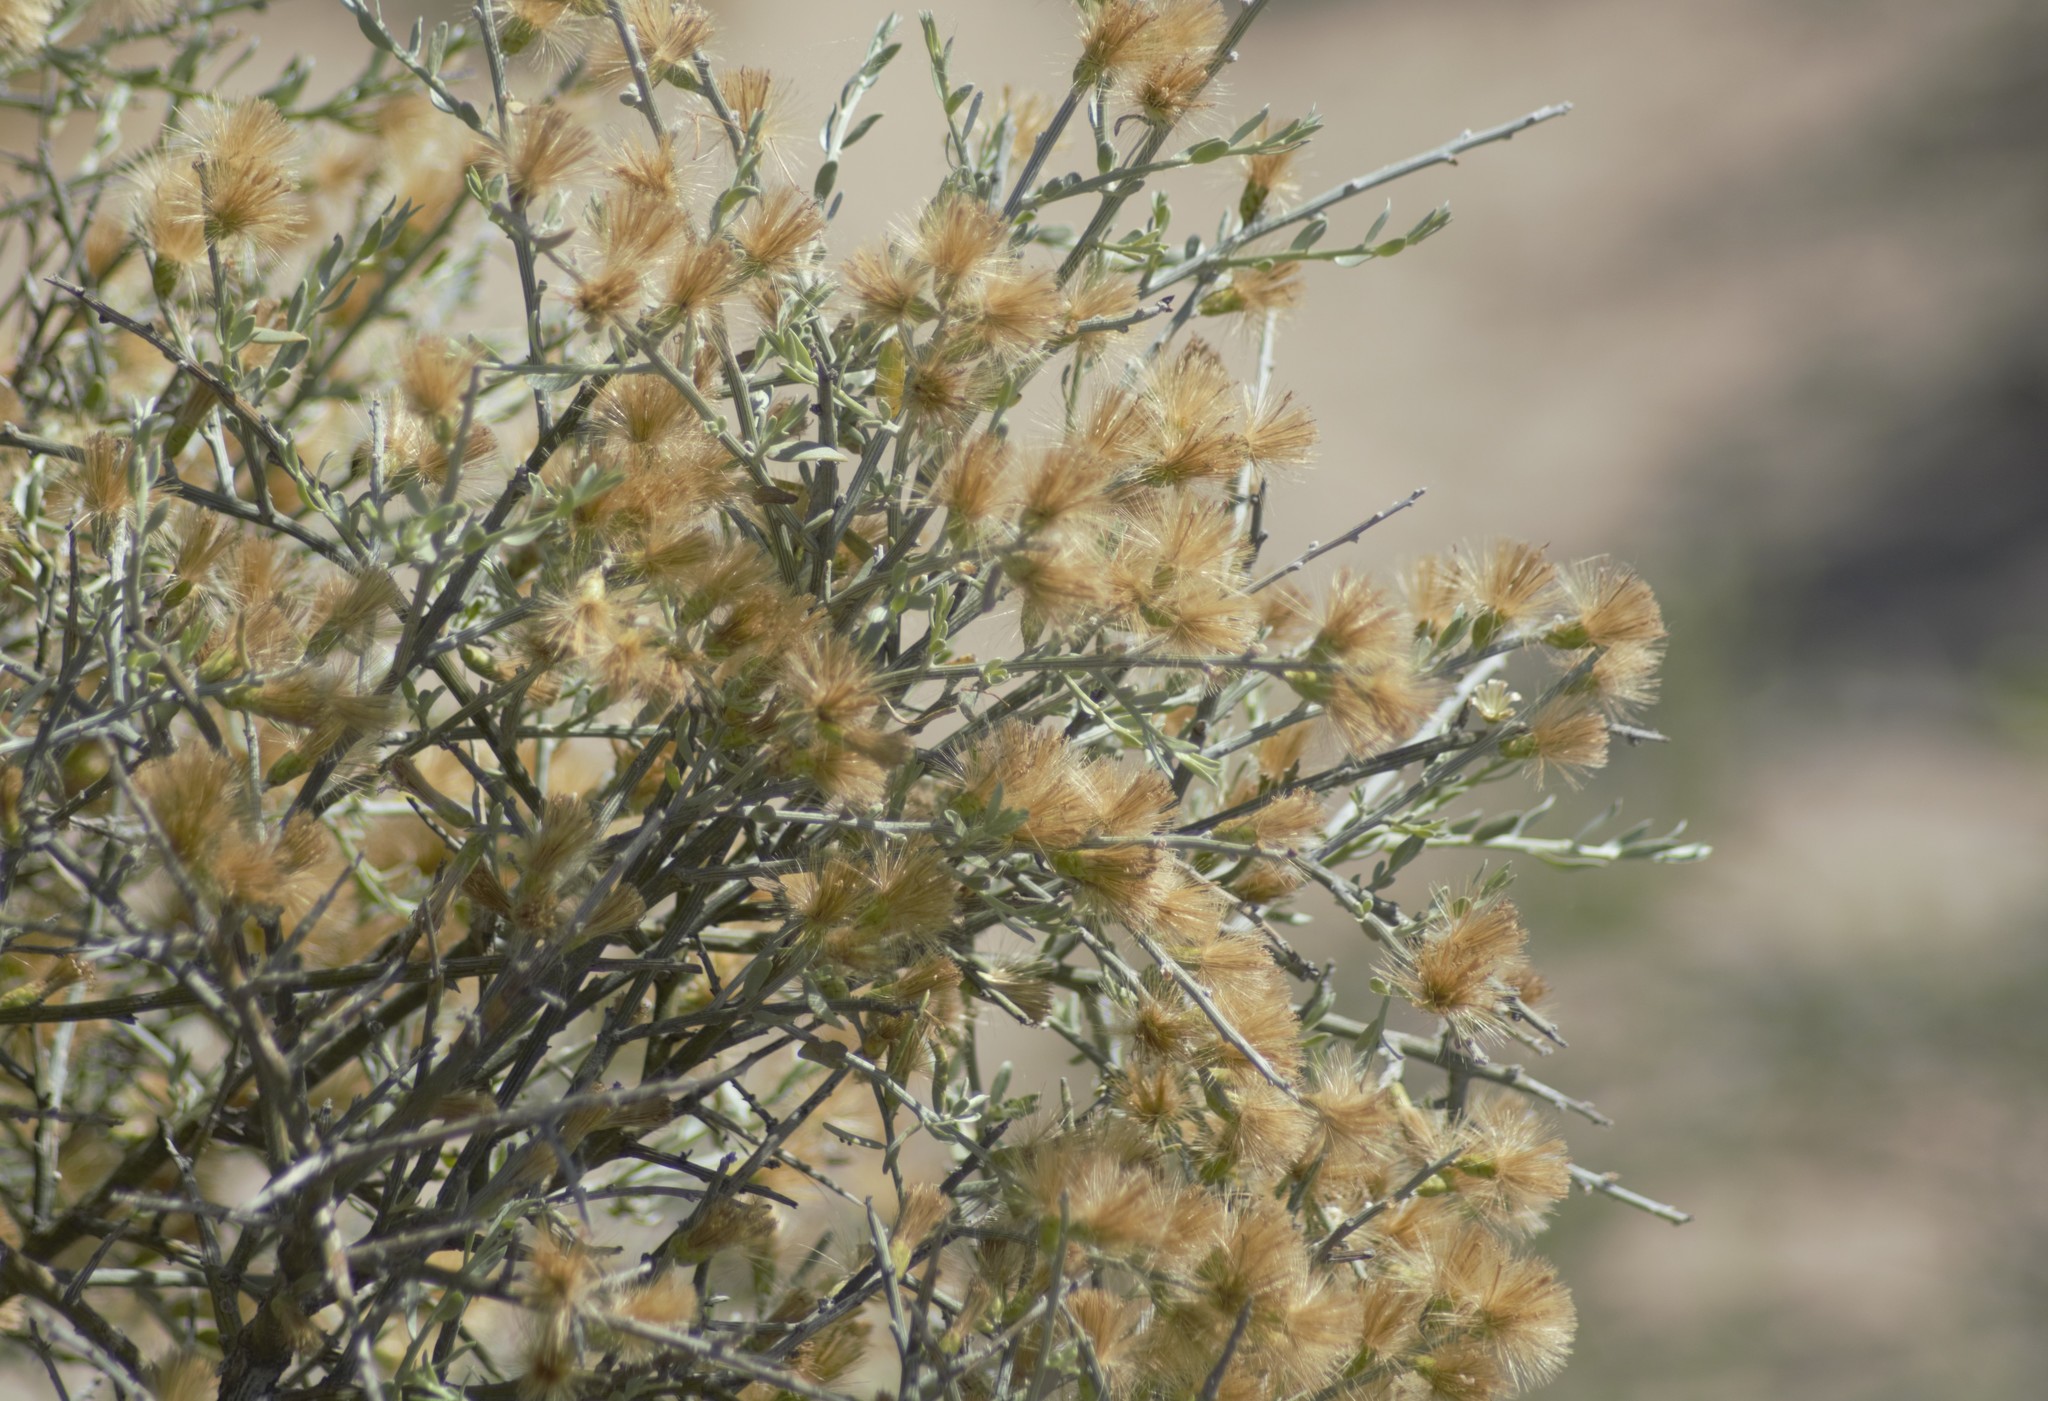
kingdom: Plantae
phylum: Tracheophyta
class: Magnoliopsida
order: Asterales
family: Asteraceae
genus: Cyclolepis
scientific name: Cyclolepis genistoides
